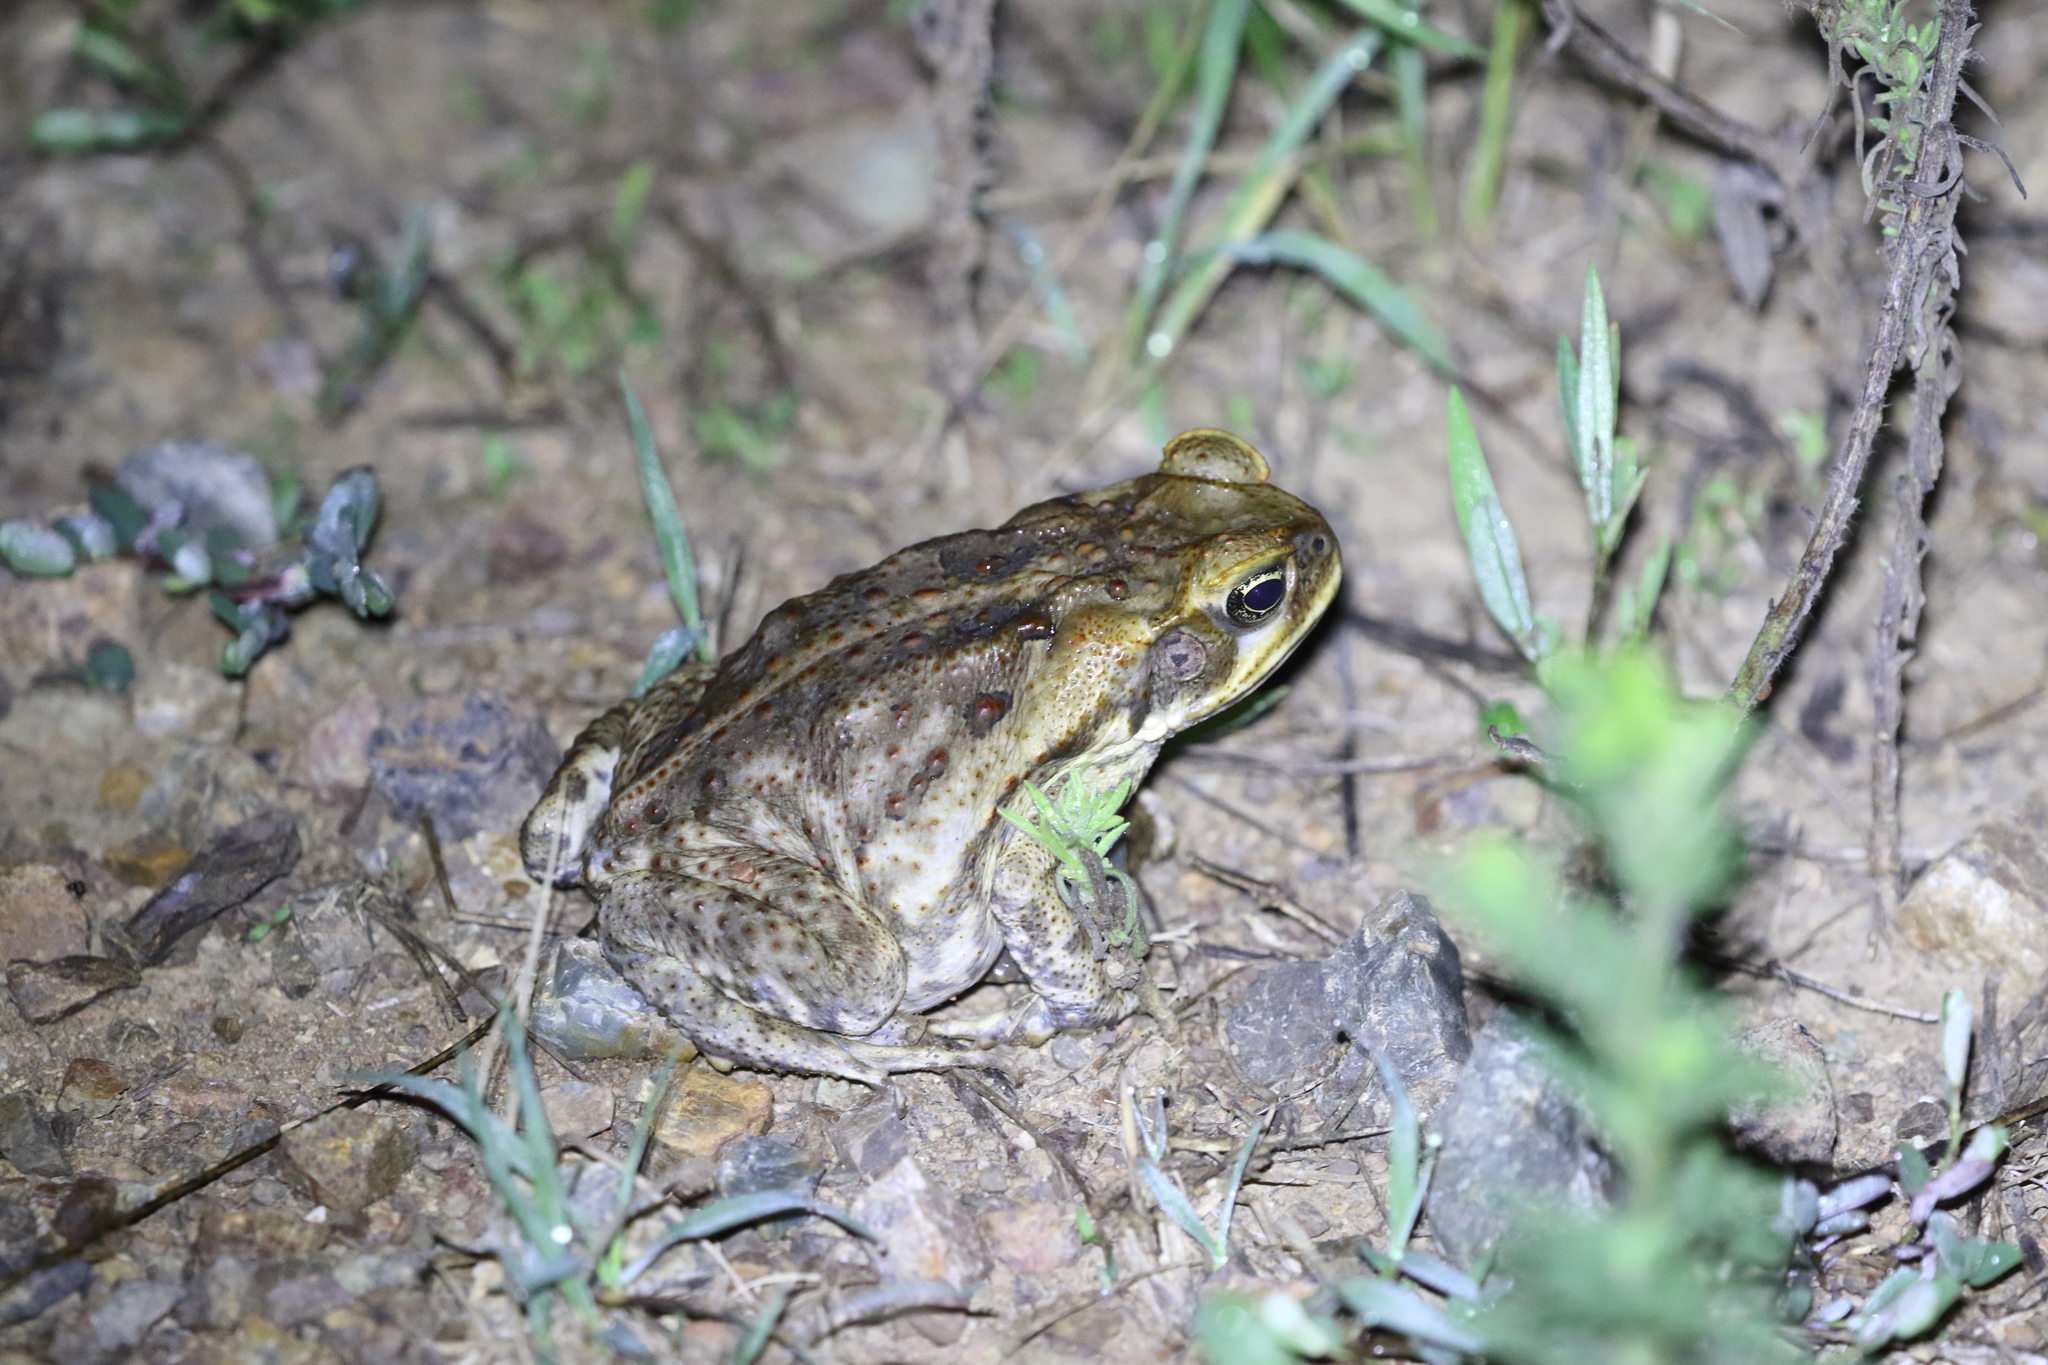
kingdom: Animalia
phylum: Chordata
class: Amphibia
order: Anura
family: Bufonidae
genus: Rhinella
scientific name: Rhinella marina
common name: Cane toad
